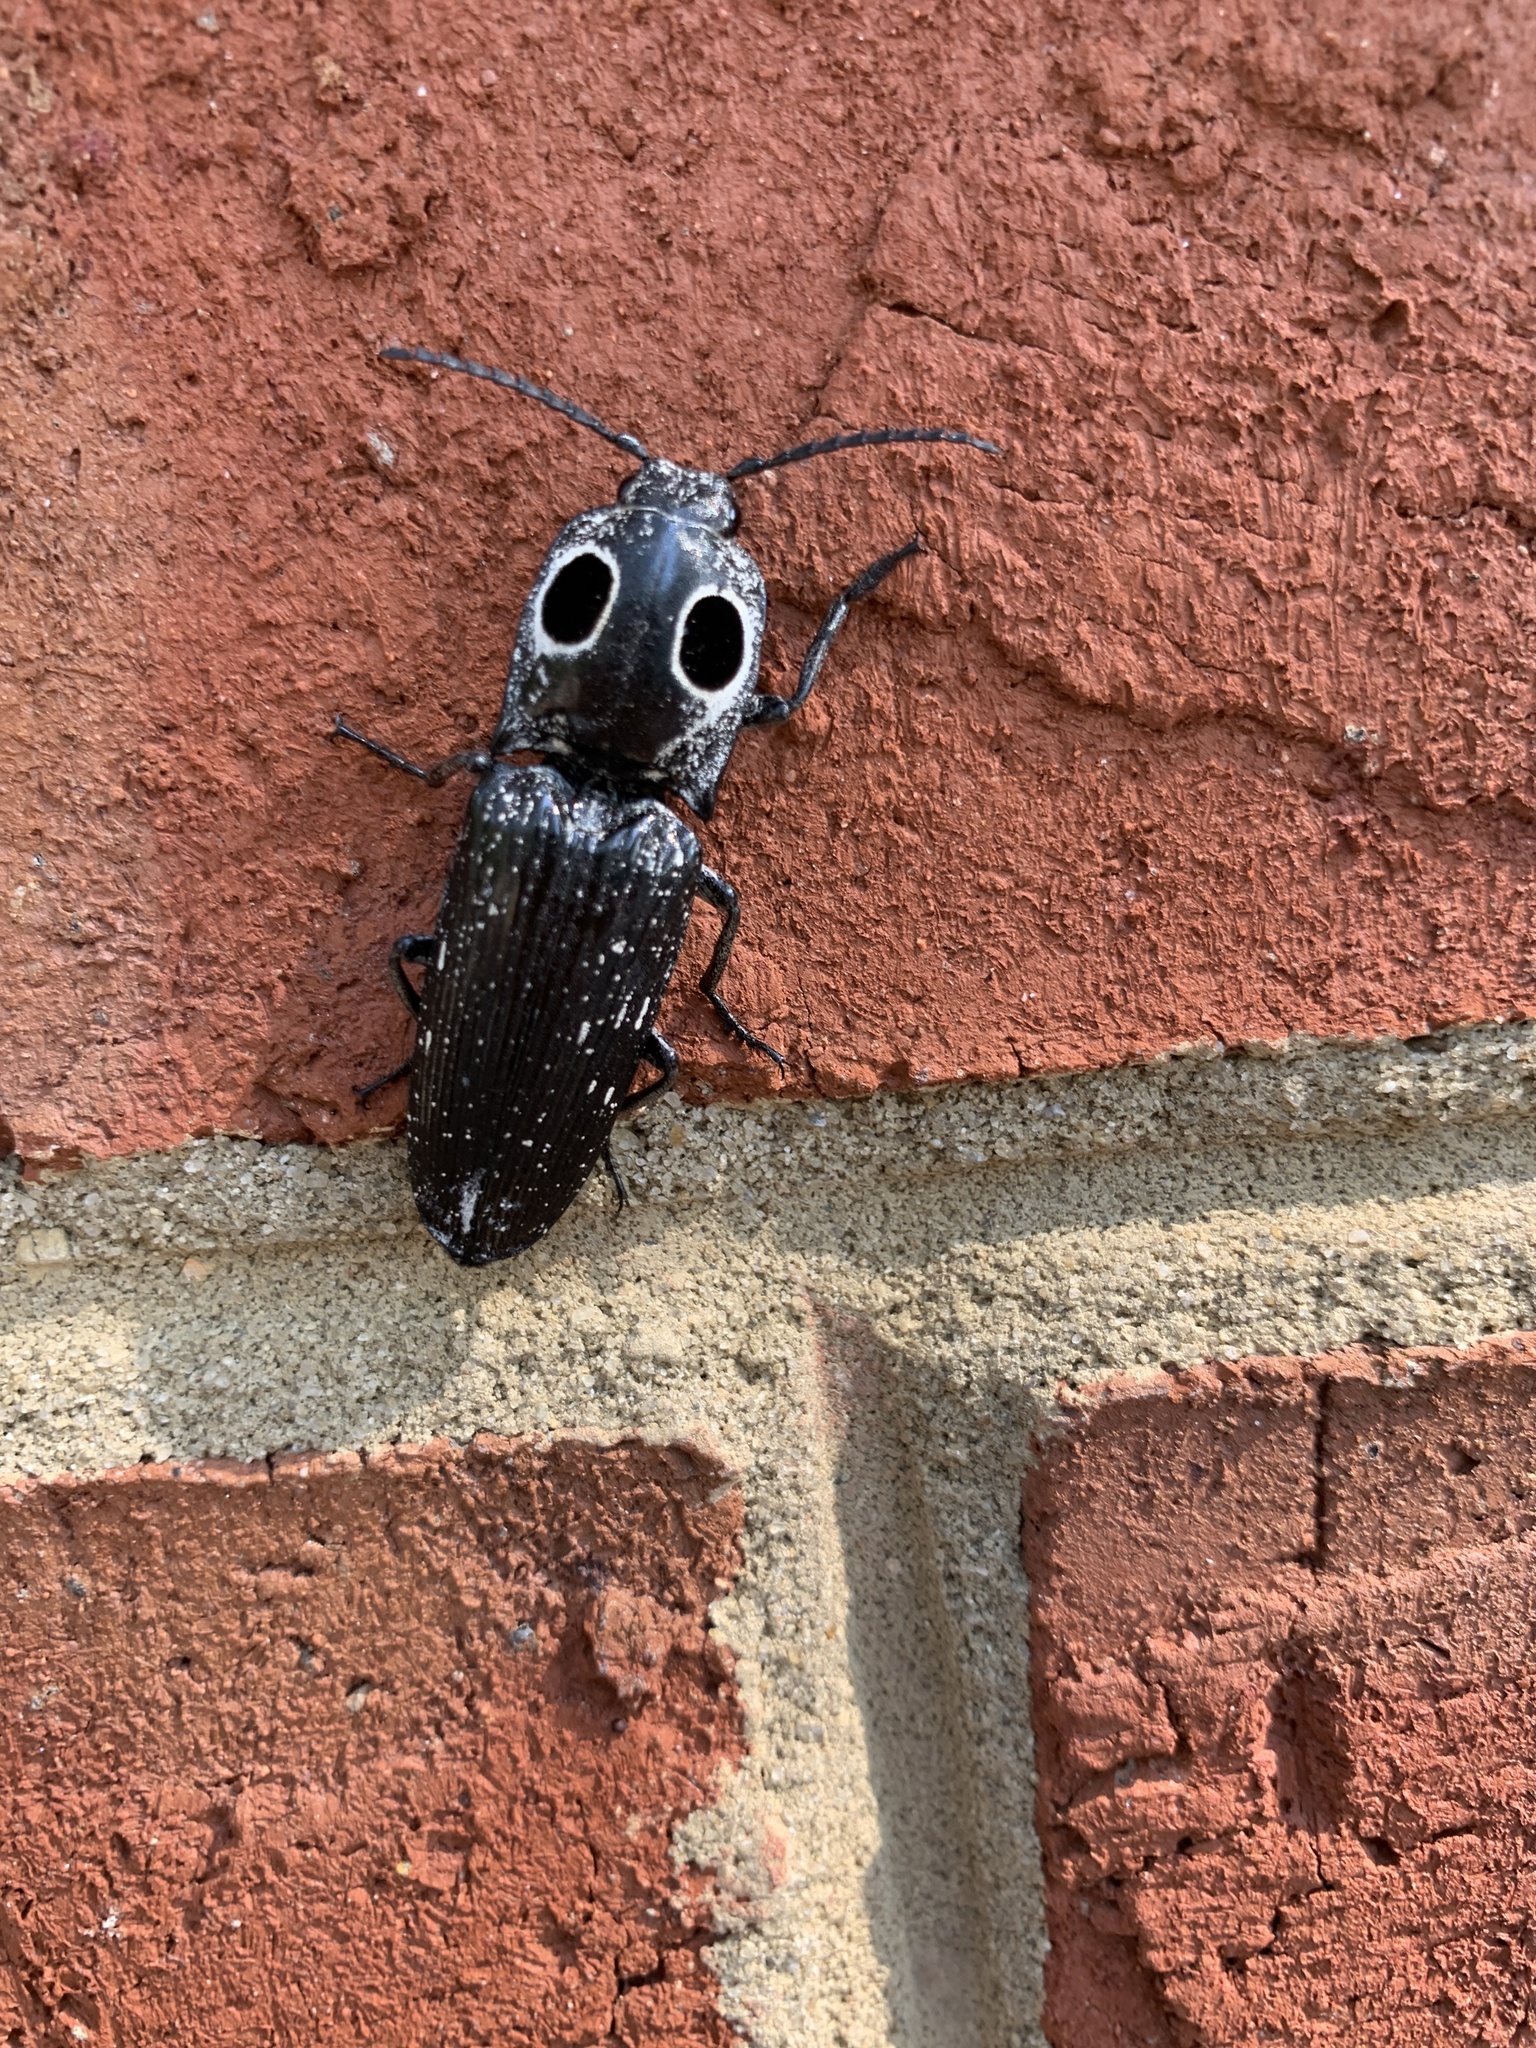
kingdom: Animalia
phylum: Arthropoda
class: Insecta
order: Coleoptera
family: Elateridae
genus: Alaus
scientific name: Alaus oculatus
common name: Eastern eyed click beetle
